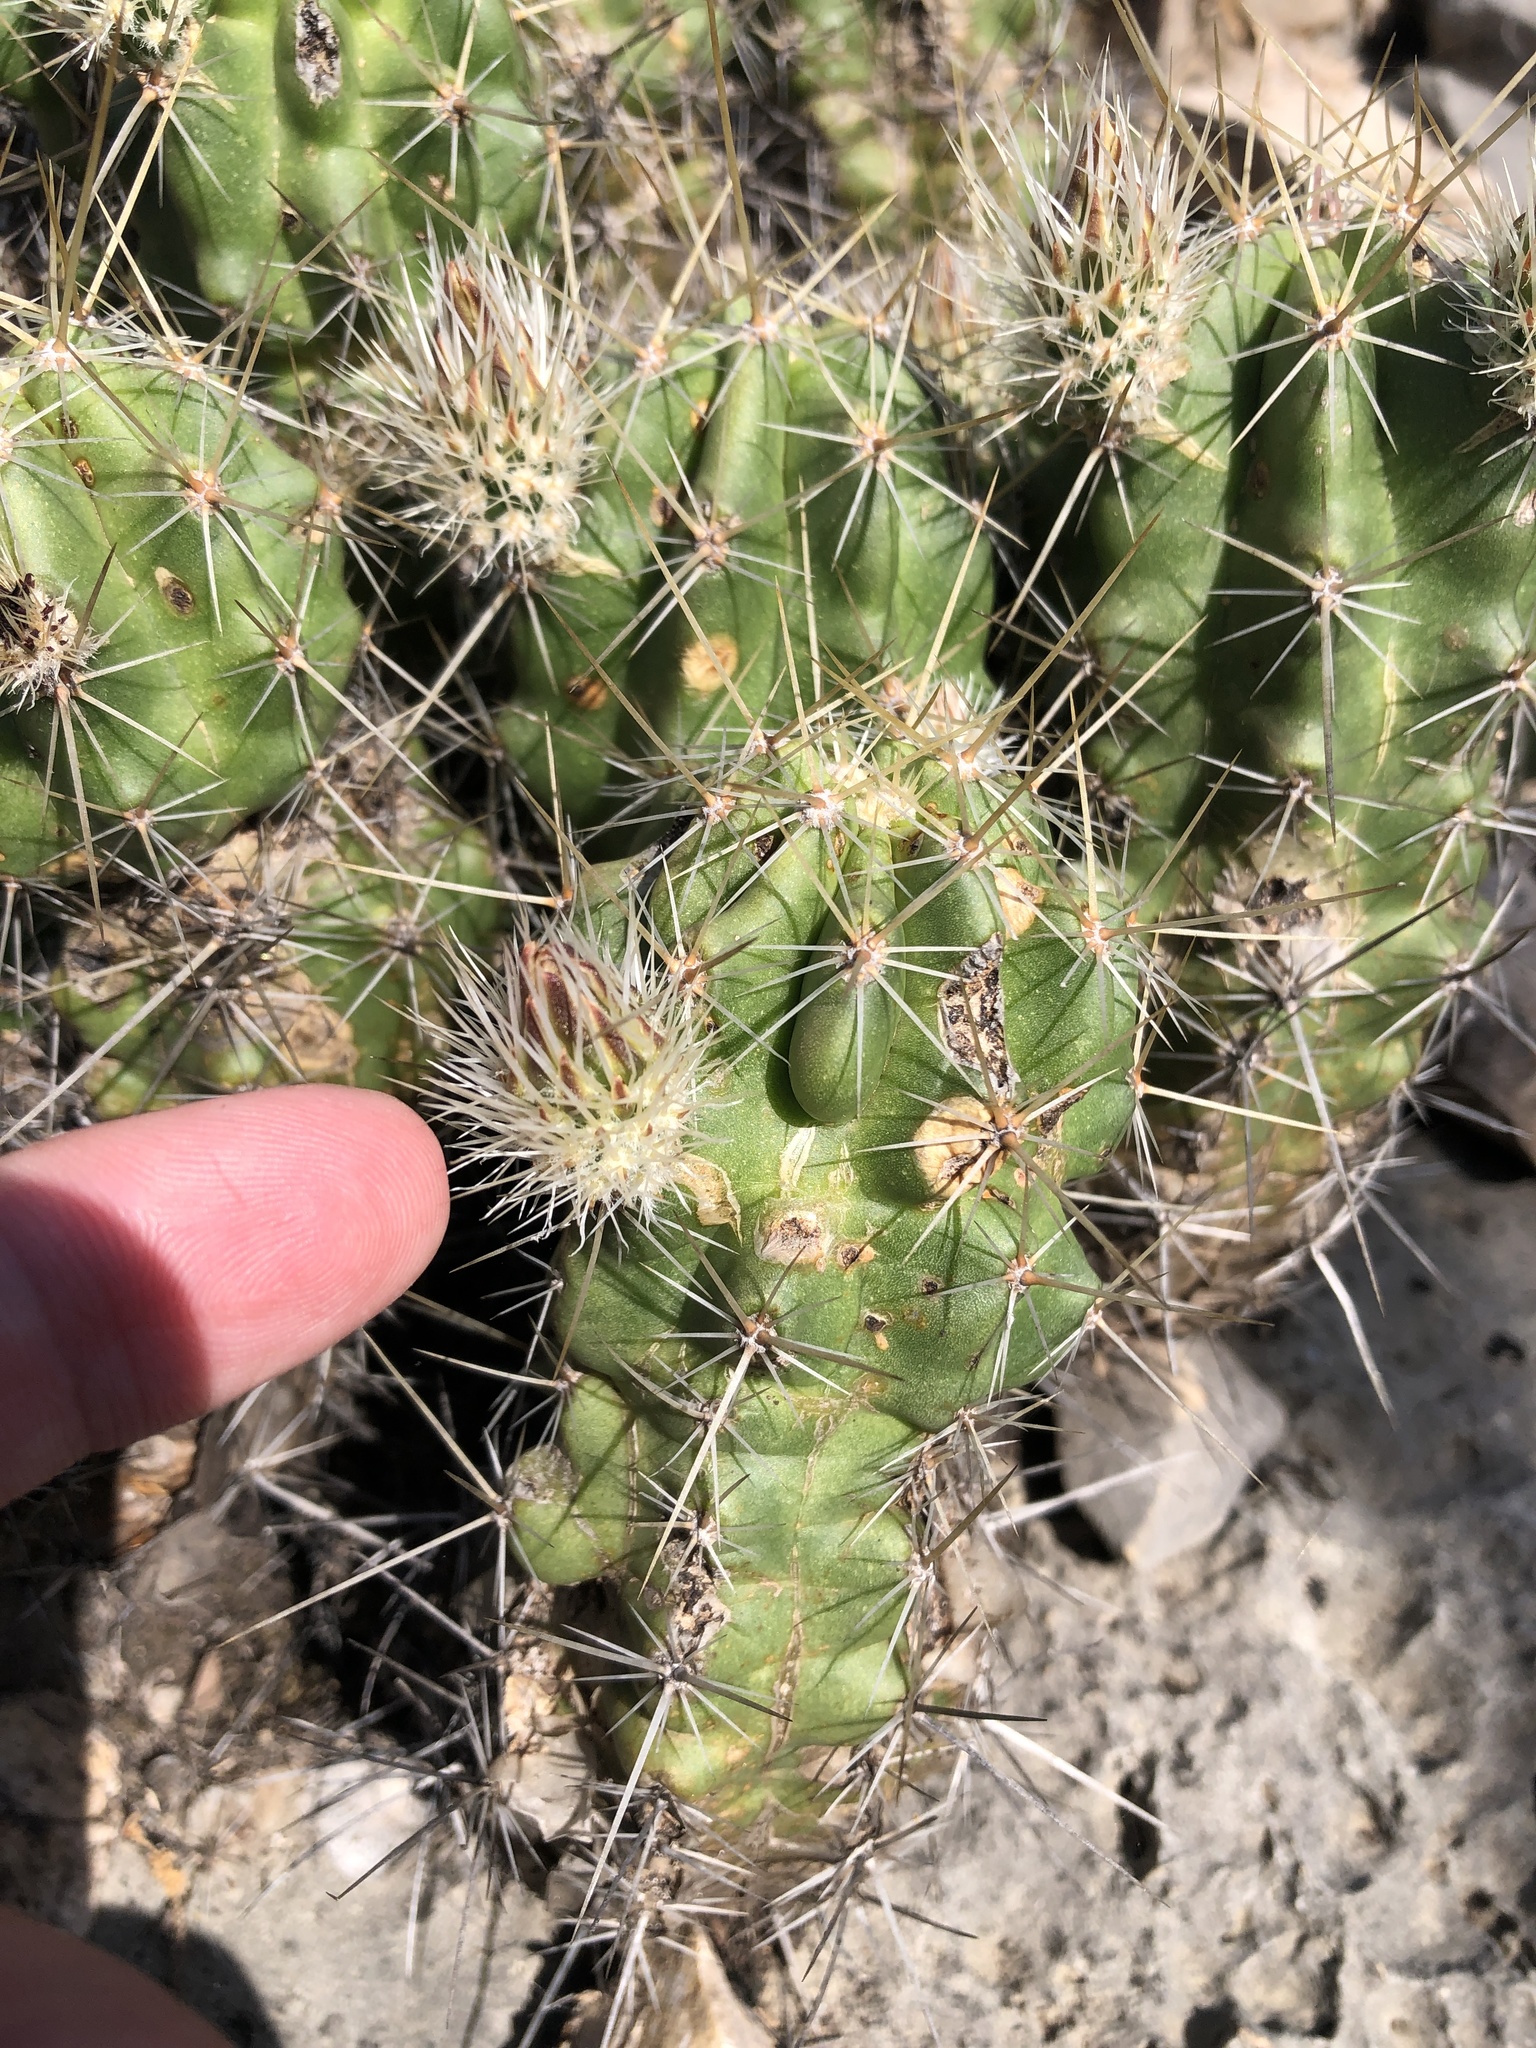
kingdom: Plantae
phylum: Tracheophyta
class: Magnoliopsida
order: Caryophyllales
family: Cactaceae
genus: Echinocereus
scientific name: Echinocereus enneacanthus
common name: Pitaya
